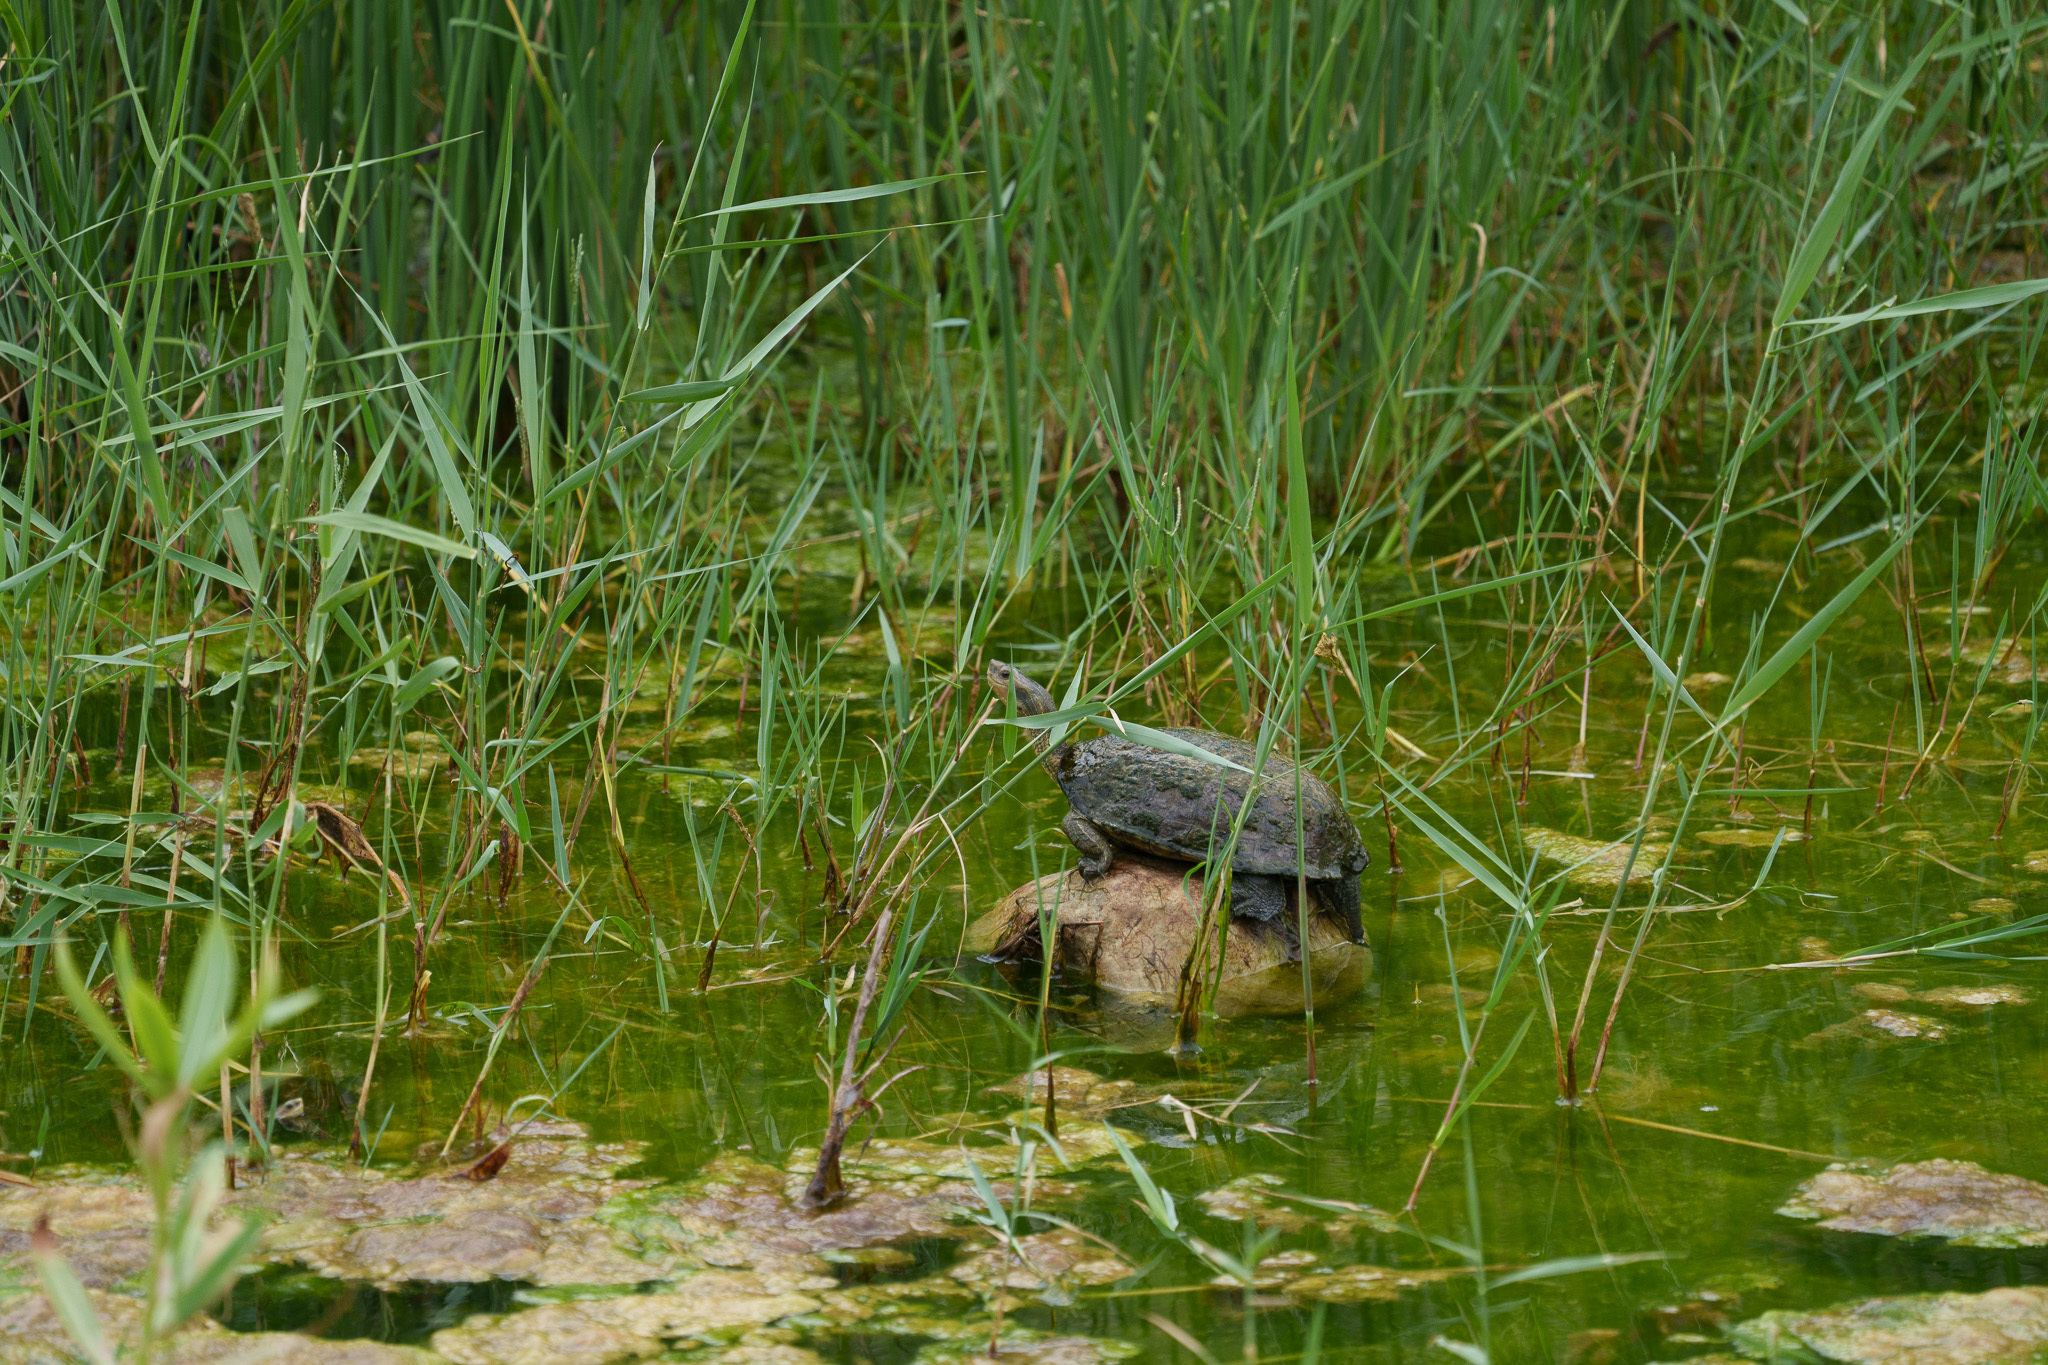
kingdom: Animalia
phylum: Chordata
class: Testudines
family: Geoemydidae
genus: Mauremys
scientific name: Mauremys rivulata
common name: Western caspian turtle
